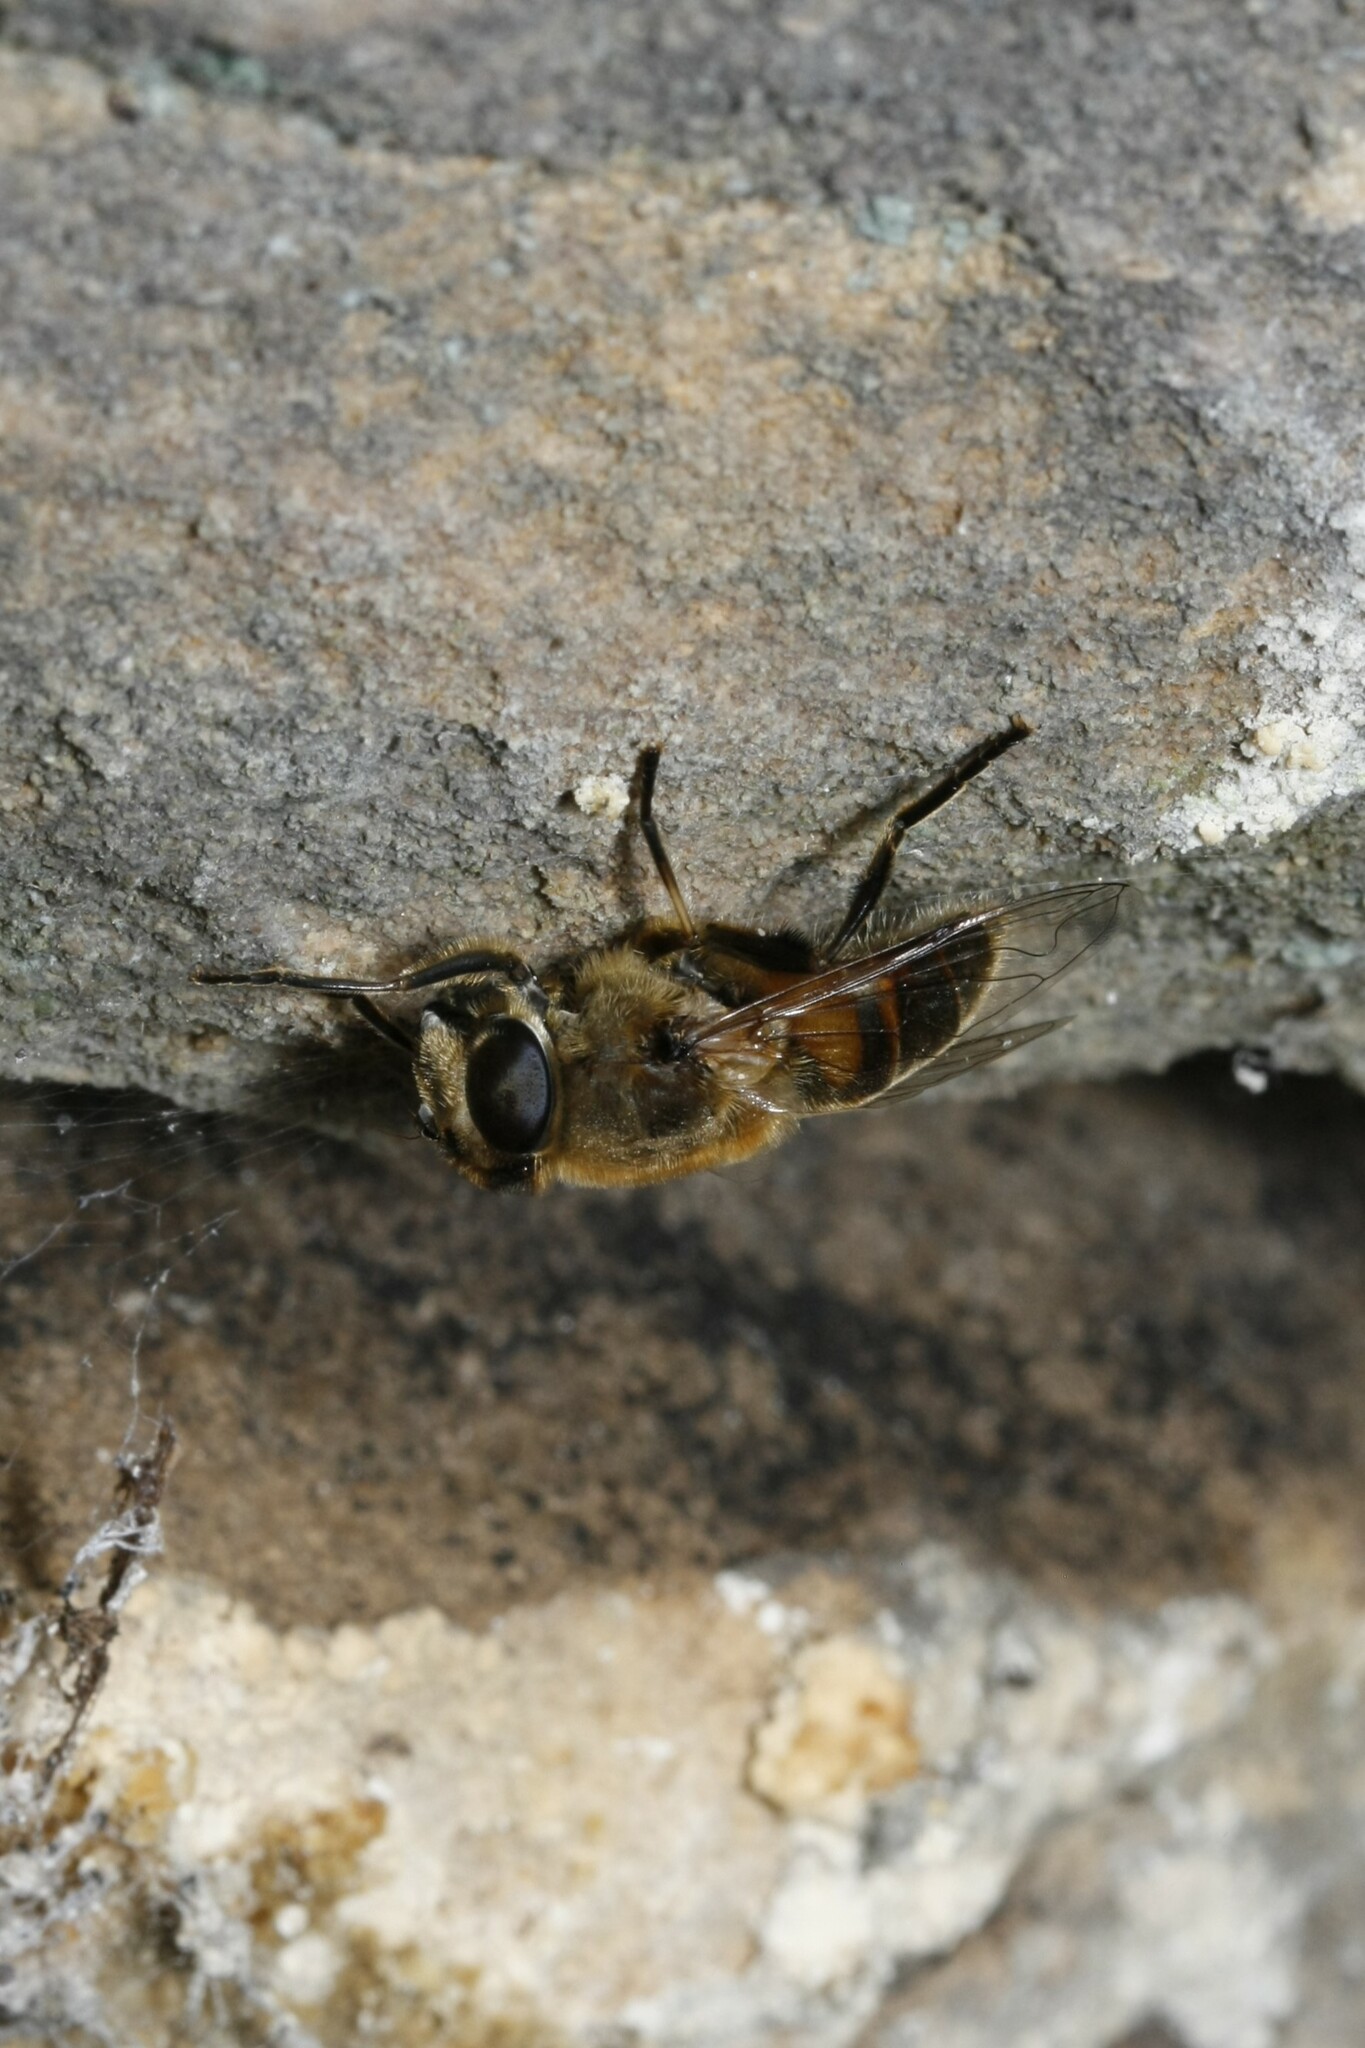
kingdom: Animalia
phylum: Arthropoda
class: Insecta
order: Diptera
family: Syrphidae
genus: Eristalis
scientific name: Eristalis tenax
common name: Drone fly
